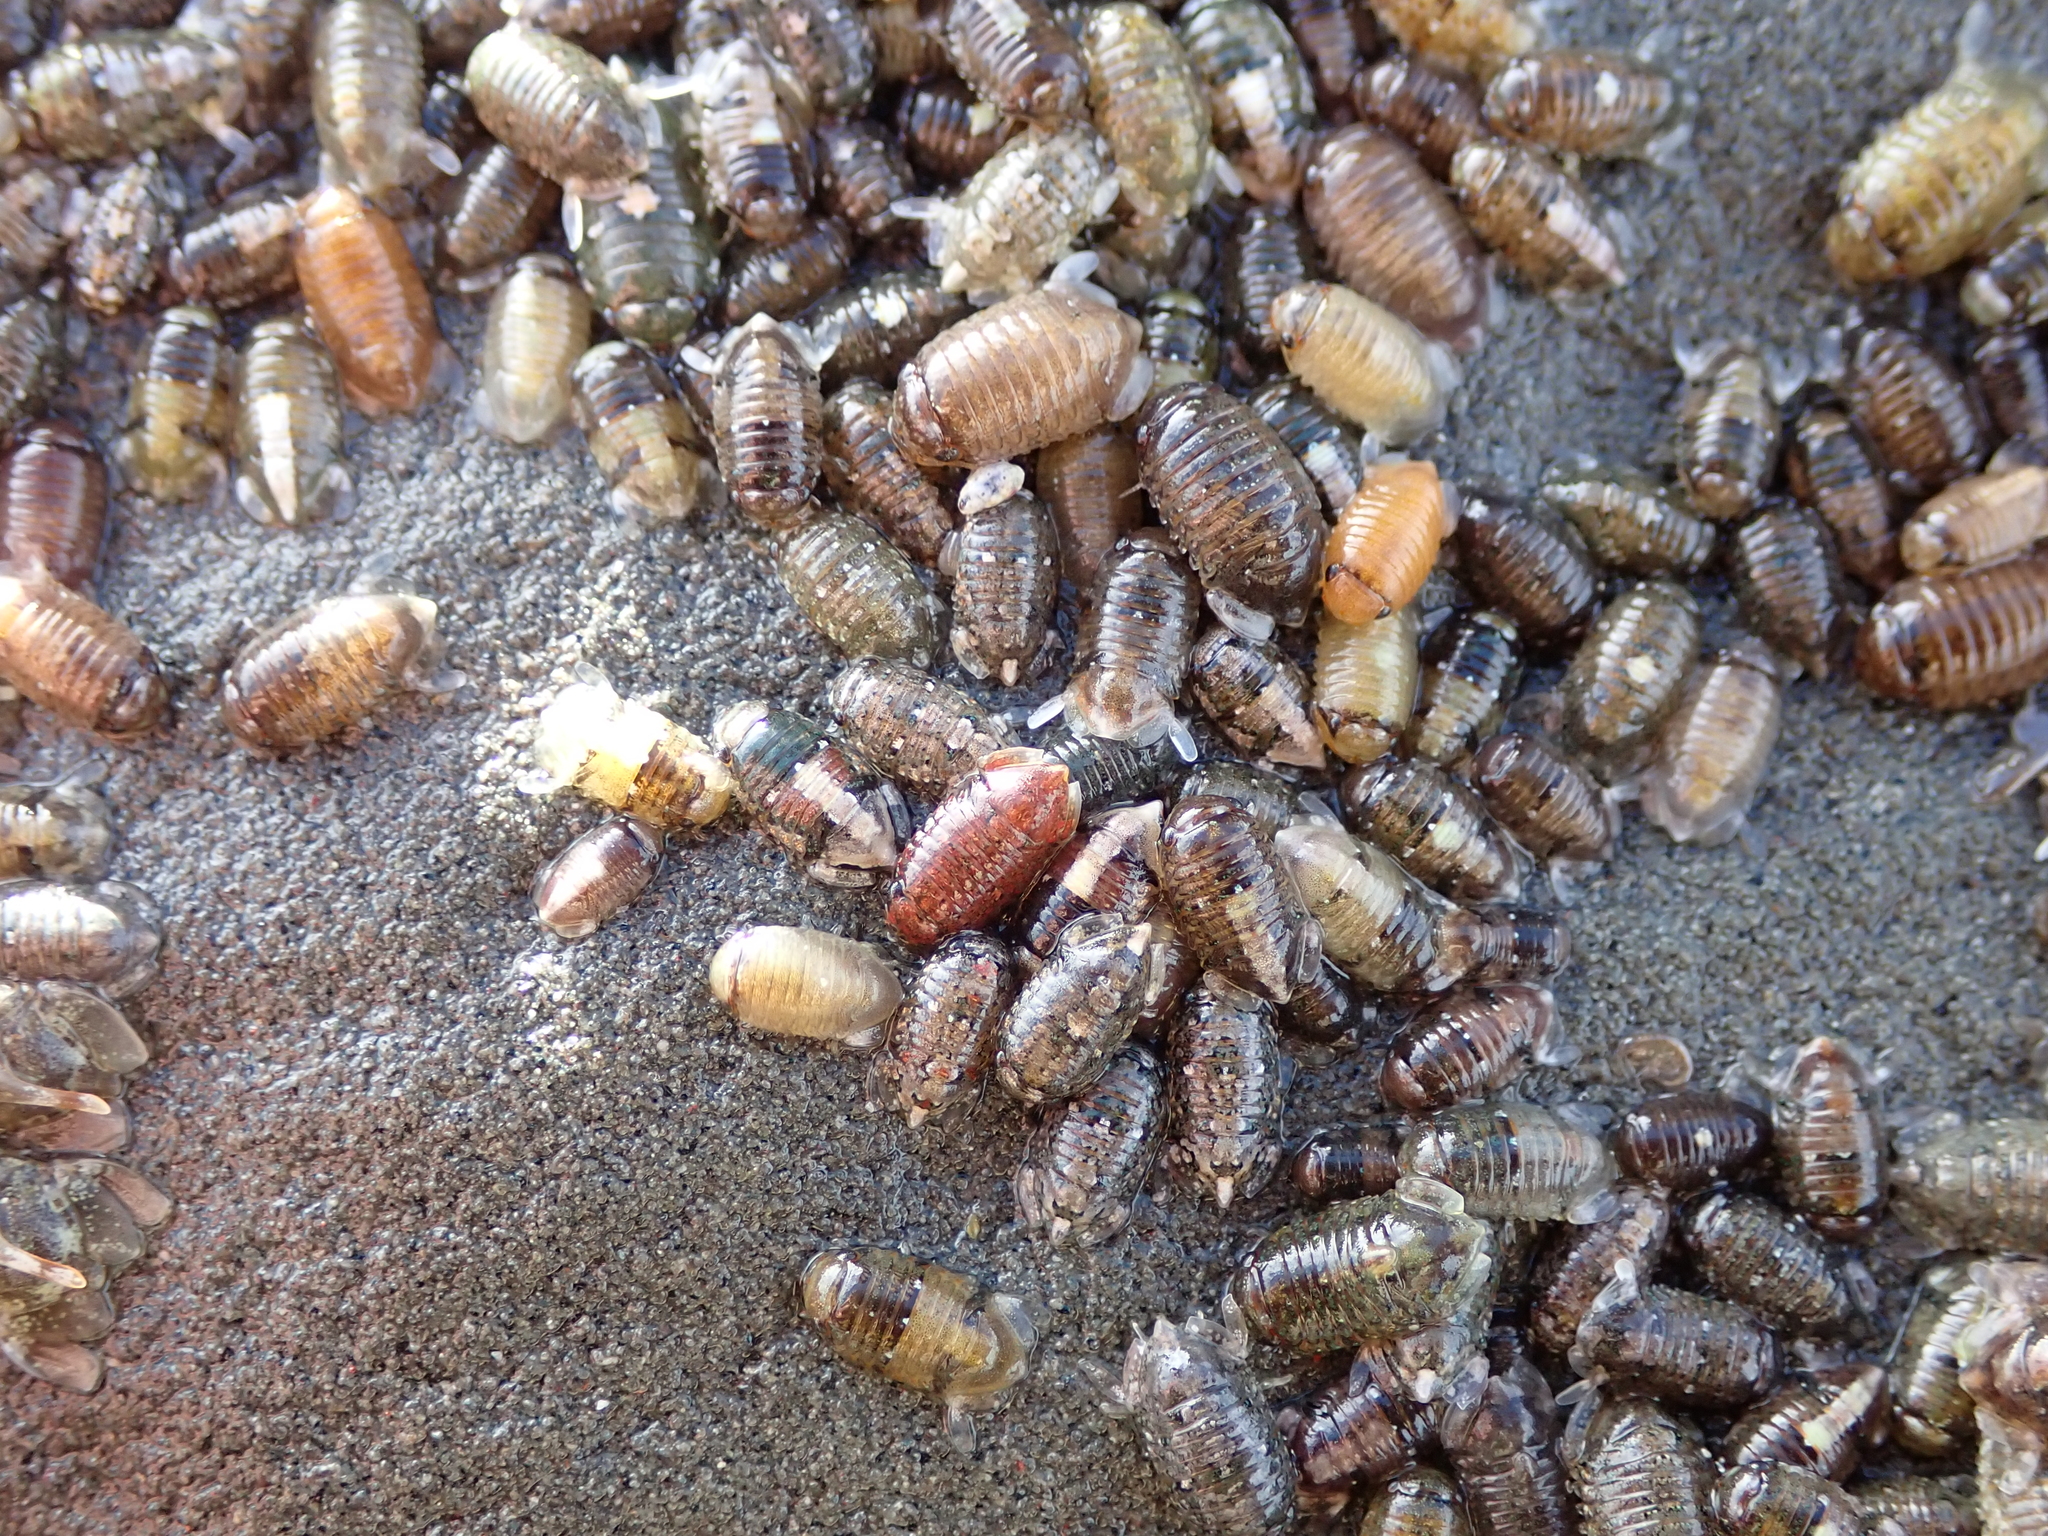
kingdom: Animalia
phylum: Arthropoda
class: Malacostraca
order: Isopoda
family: Sphaeromatidae
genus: Exosphaeroma
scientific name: Exosphaeroma obtusum
